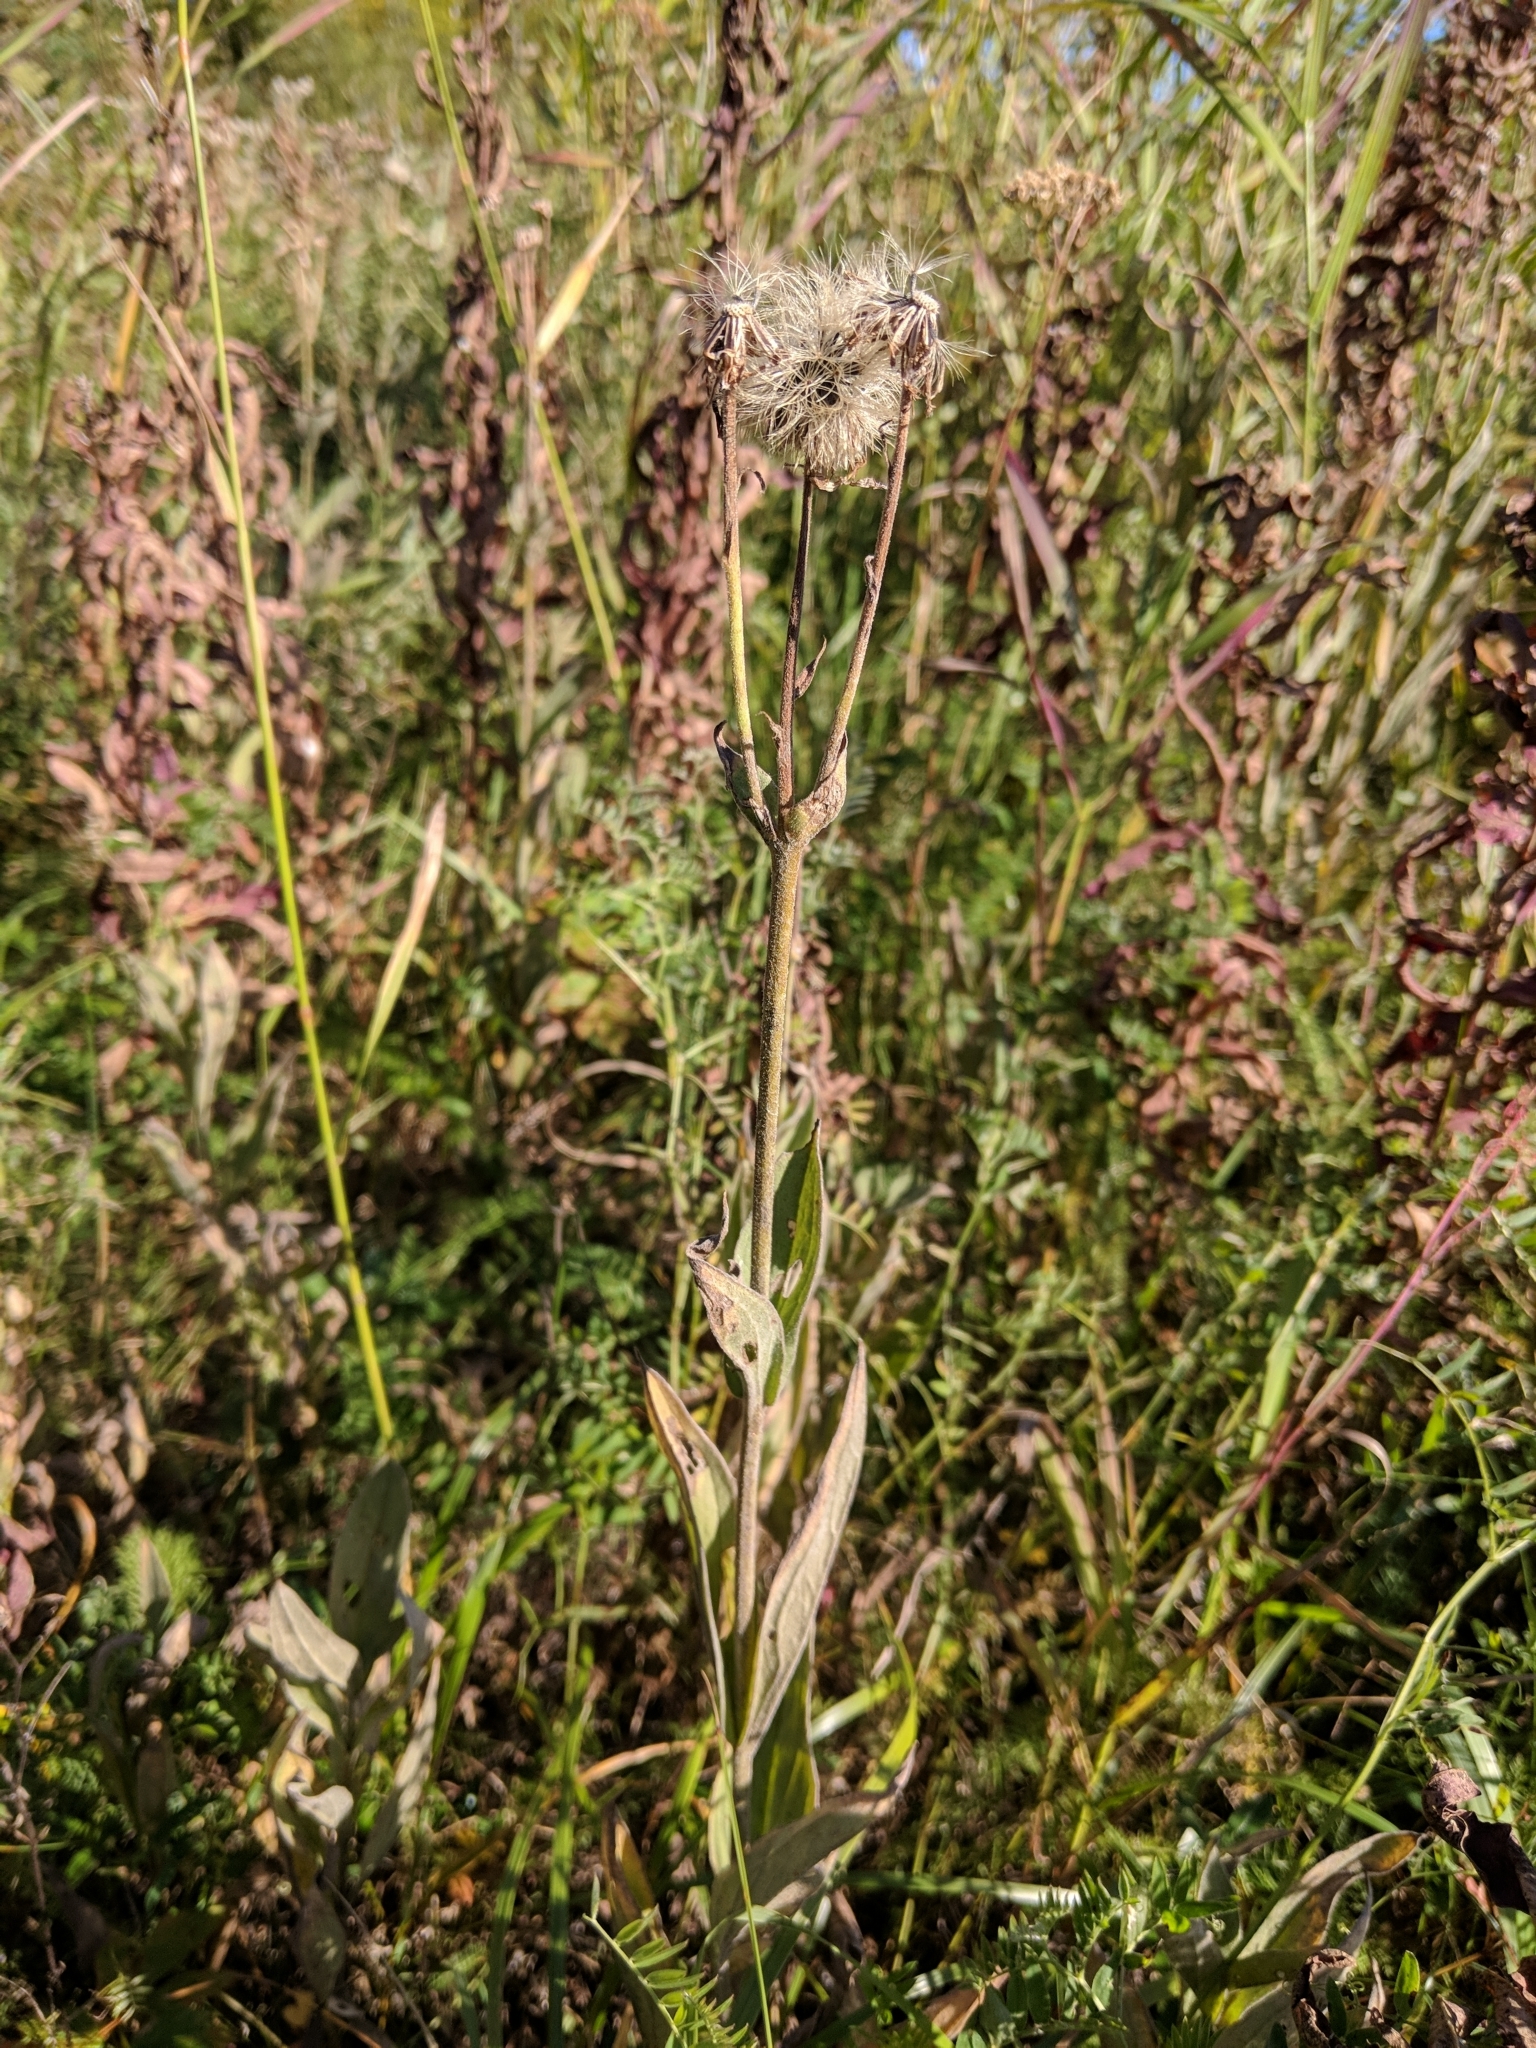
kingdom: Plantae
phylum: Tracheophyta
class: Magnoliopsida
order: Asterales
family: Asteraceae
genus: Arnica
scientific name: Arnica chamissonis
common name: Leafy arnica
